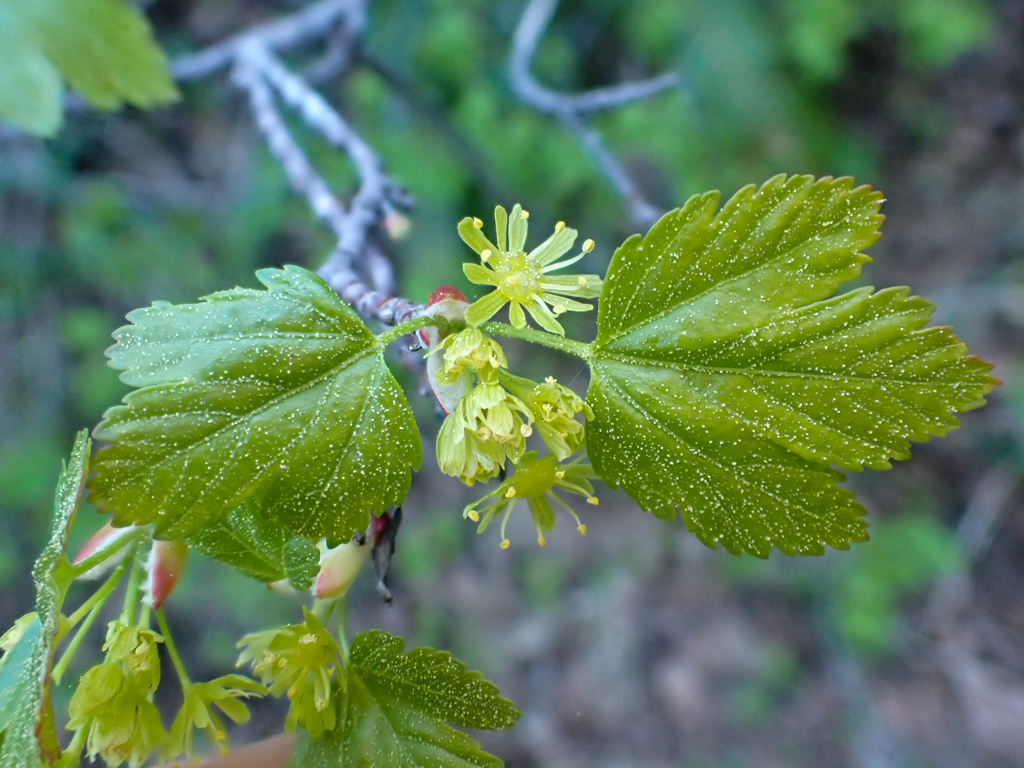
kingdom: Plantae
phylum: Tracheophyta
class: Magnoliopsida
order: Sapindales
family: Sapindaceae
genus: Acer
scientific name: Acer glabrum
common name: Rocky mountain maple
